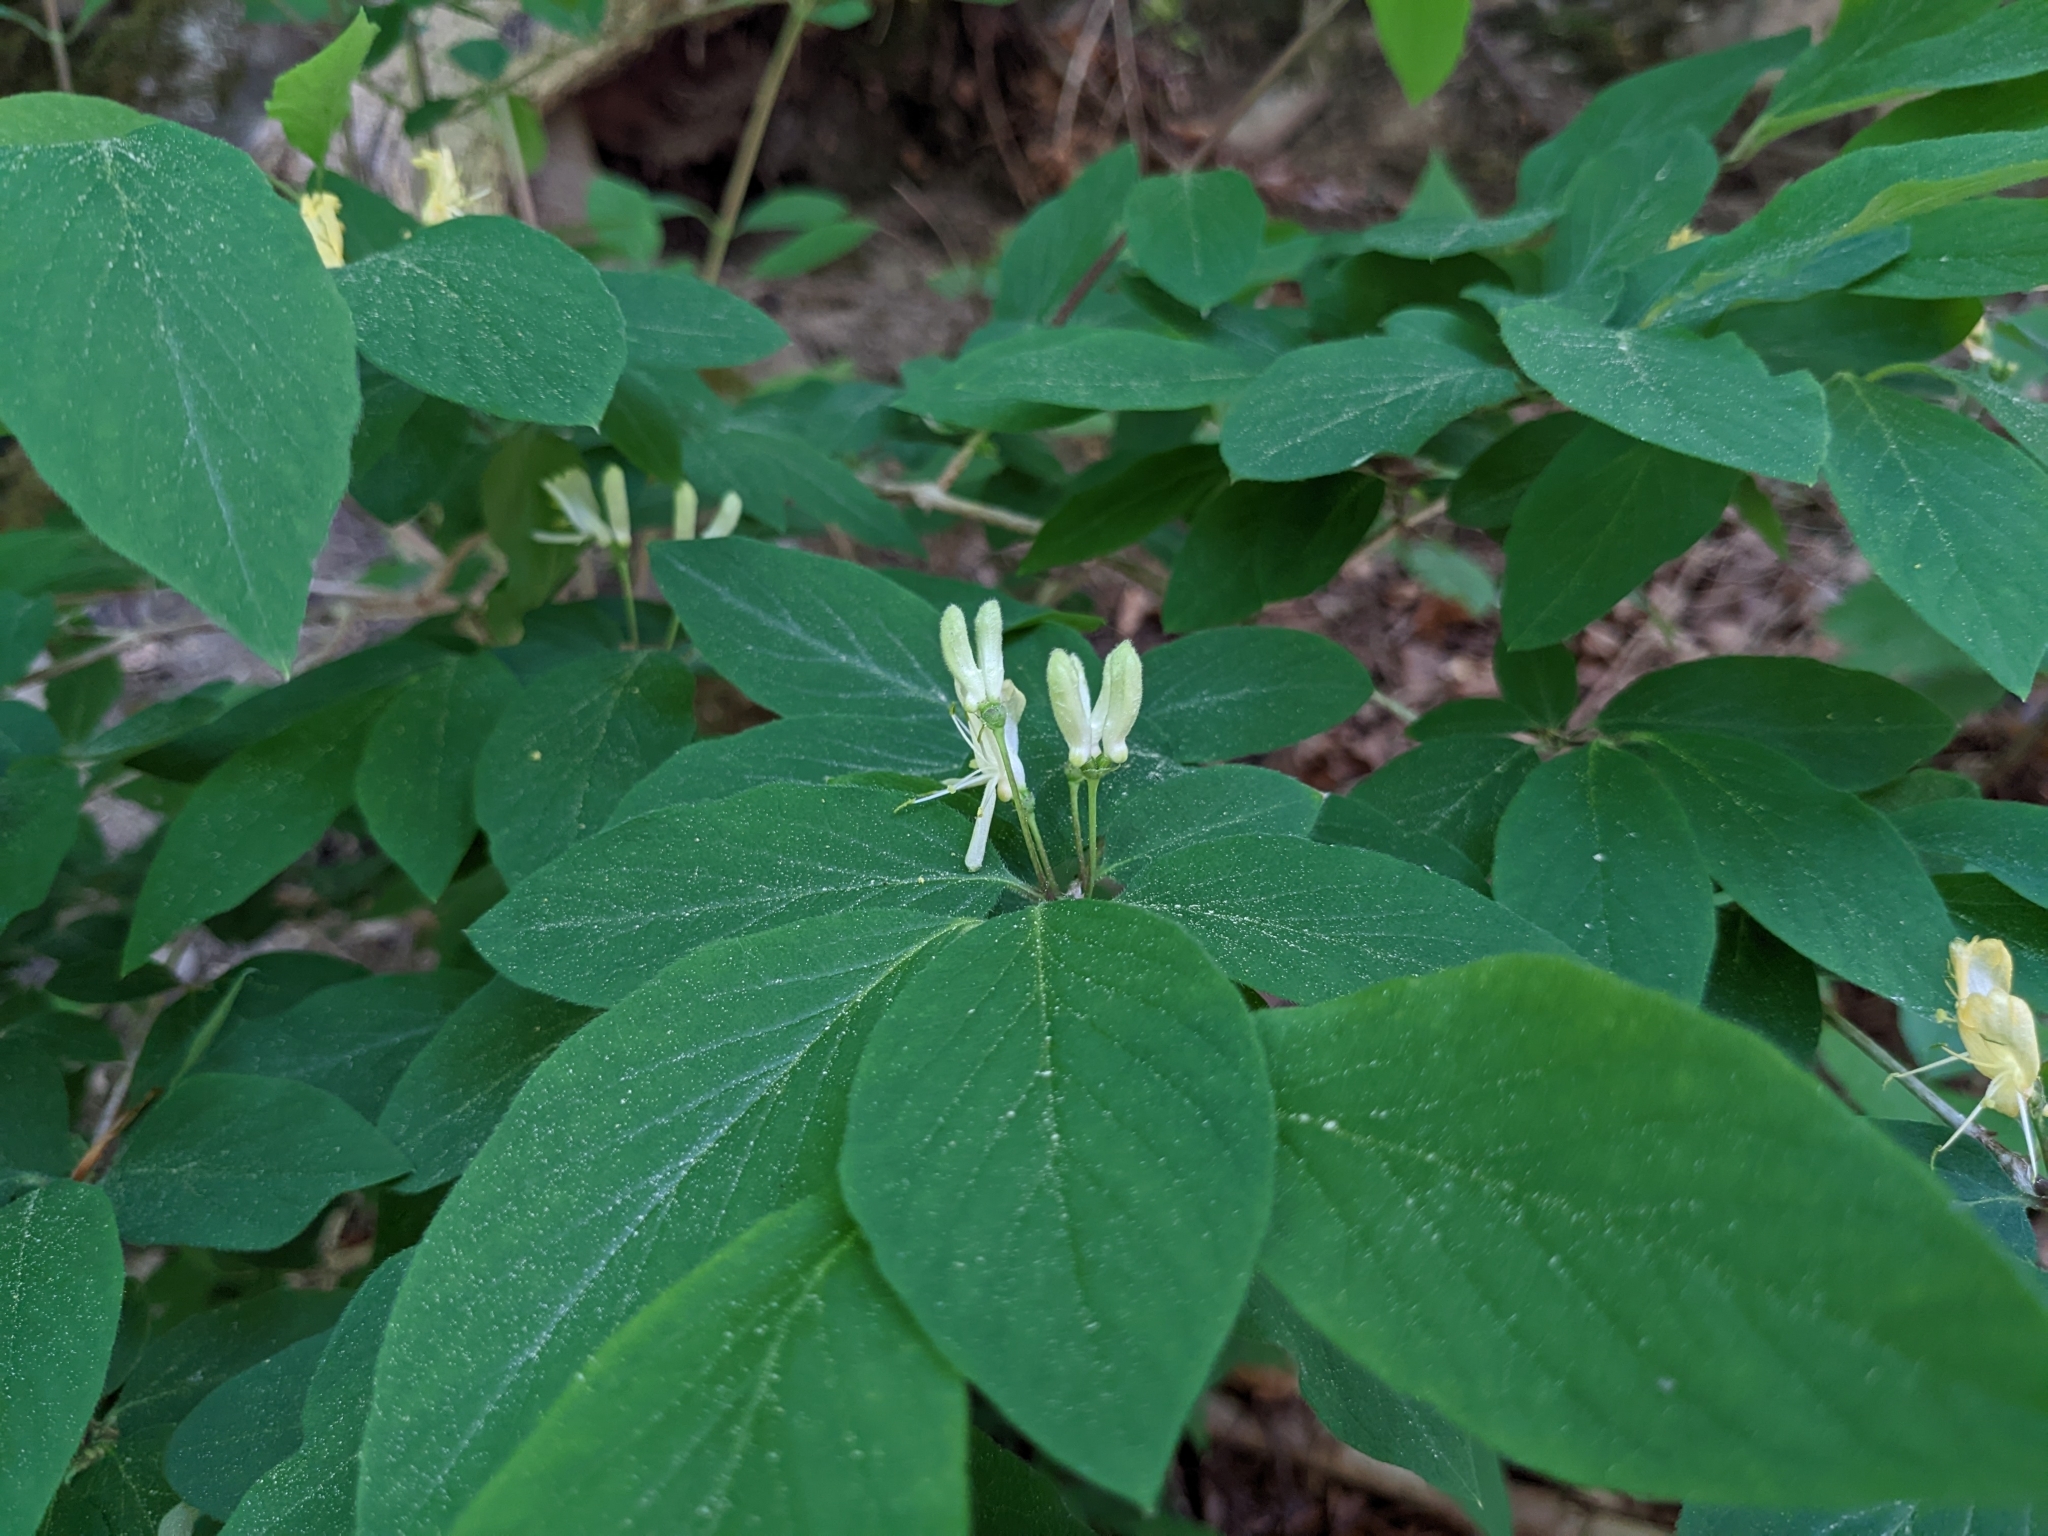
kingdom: Plantae
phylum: Tracheophyta
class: Magnoliopsida
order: Dipsacales
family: Caprifoliaceae
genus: Lonicera
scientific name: Lonicera xylosteum
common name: Fly honeysuckle
